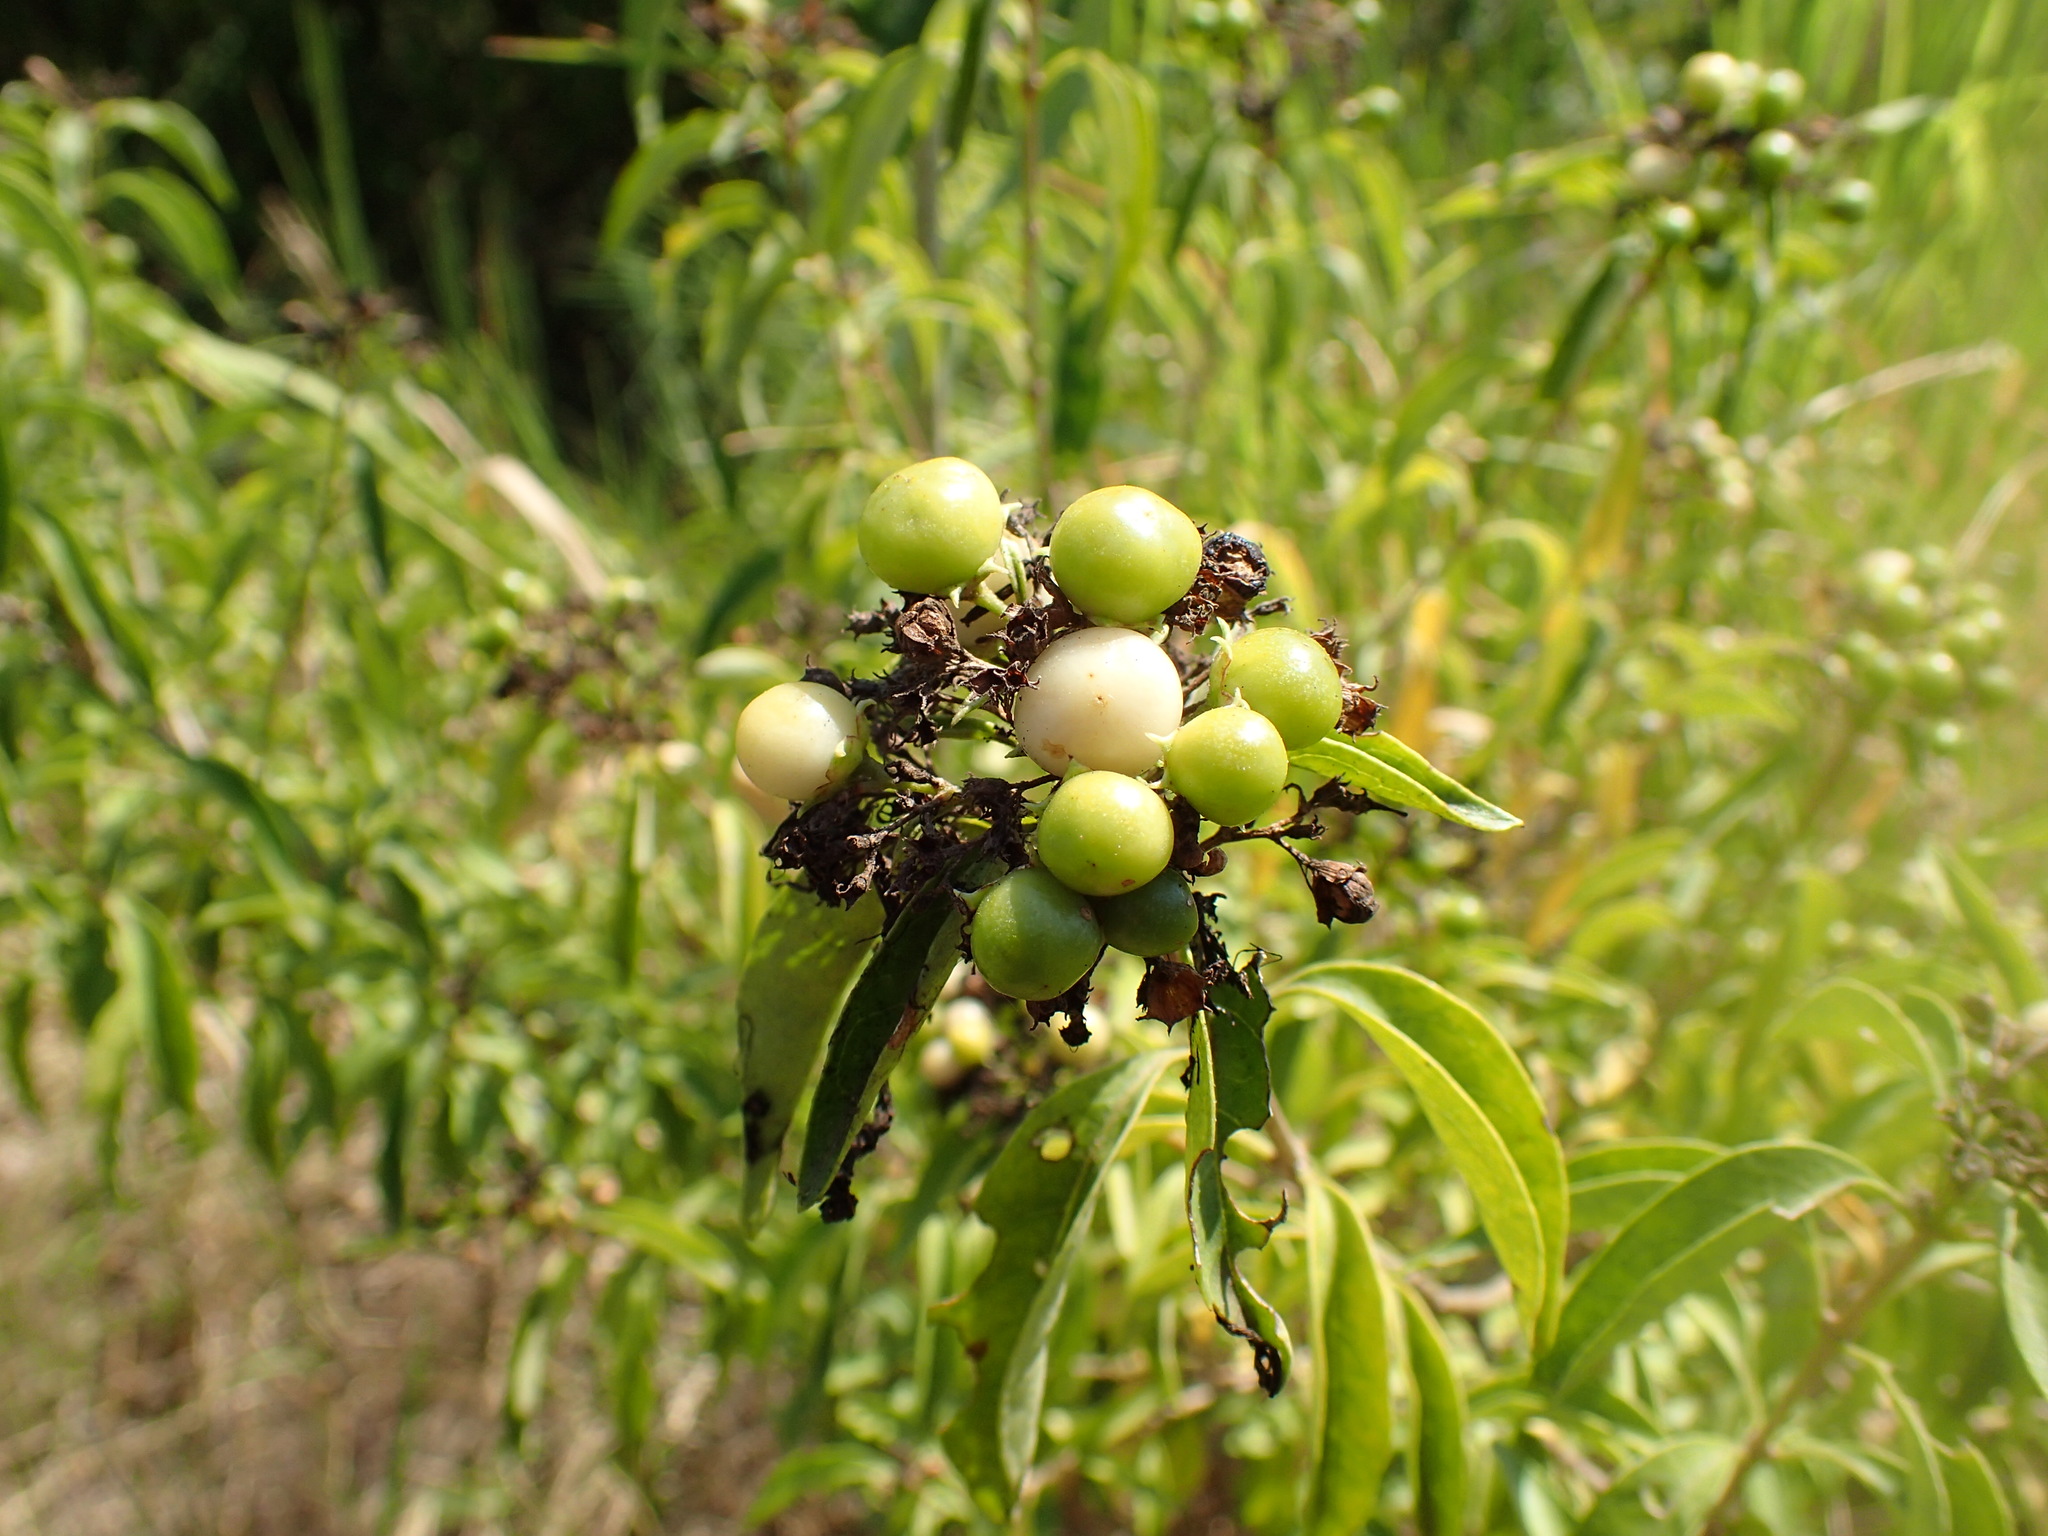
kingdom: Plantae
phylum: Tracheophyta
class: Magnoliopsida
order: Lamiales
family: Lamiaceae
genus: Volkameria
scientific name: Volkameria glabra
